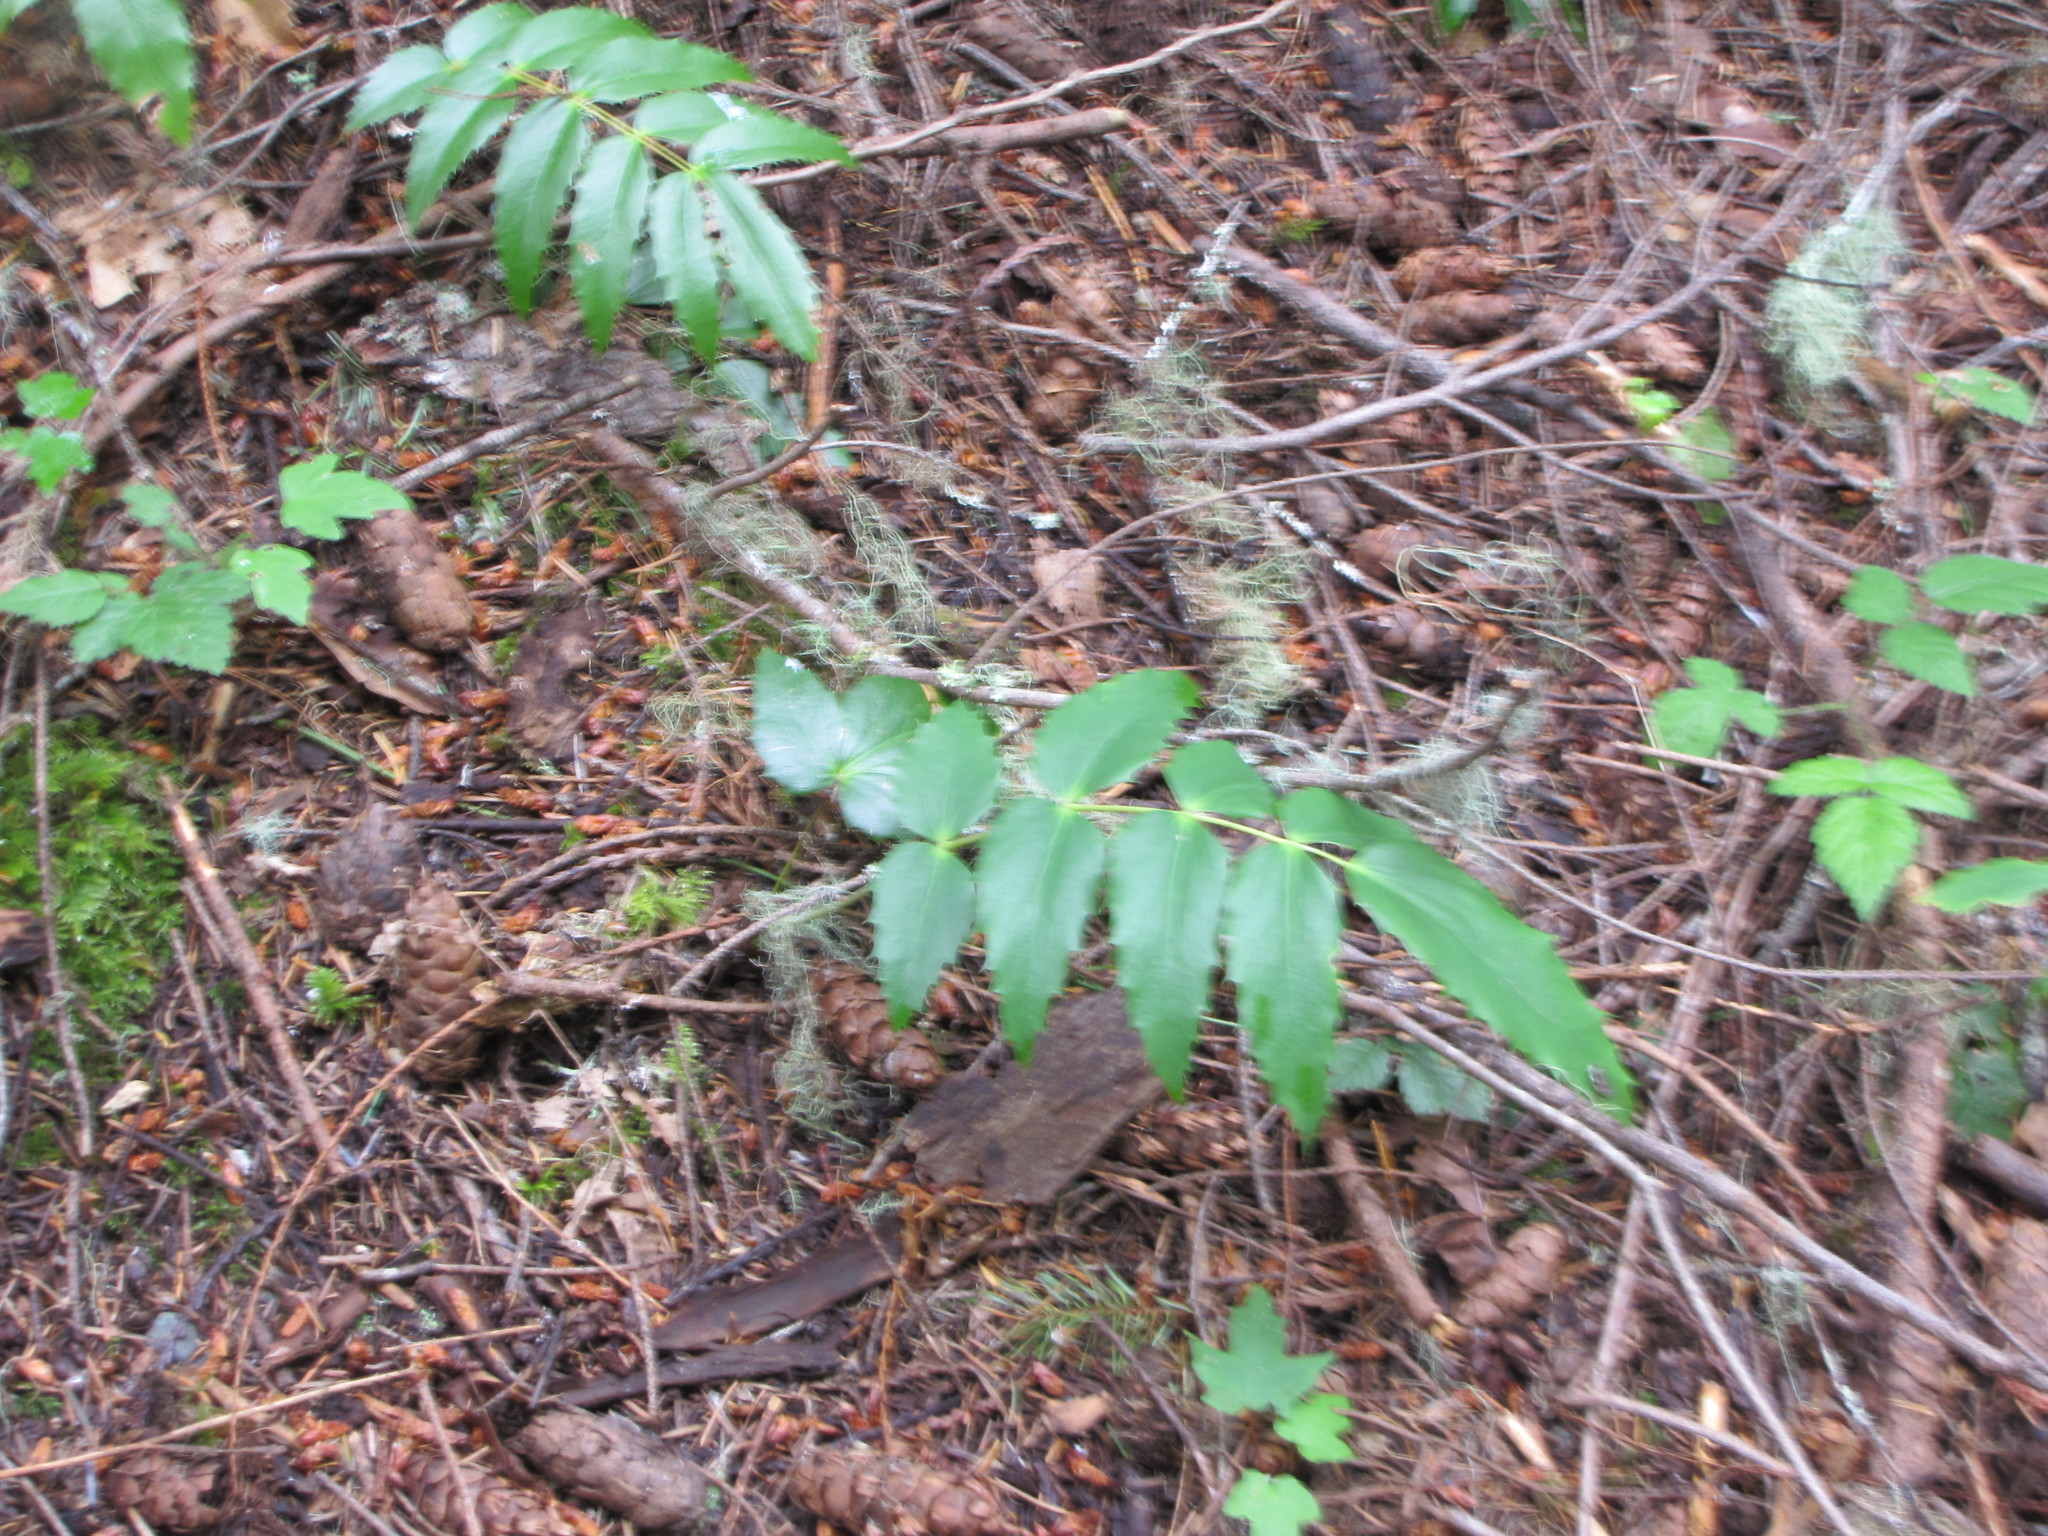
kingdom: Plantae
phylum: Tracheophyta
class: Magnoliopsida
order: Ranunculales
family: Berberidaceae
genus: Mahonia
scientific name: Mahonia nervosa
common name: Cascade oregon-grape
